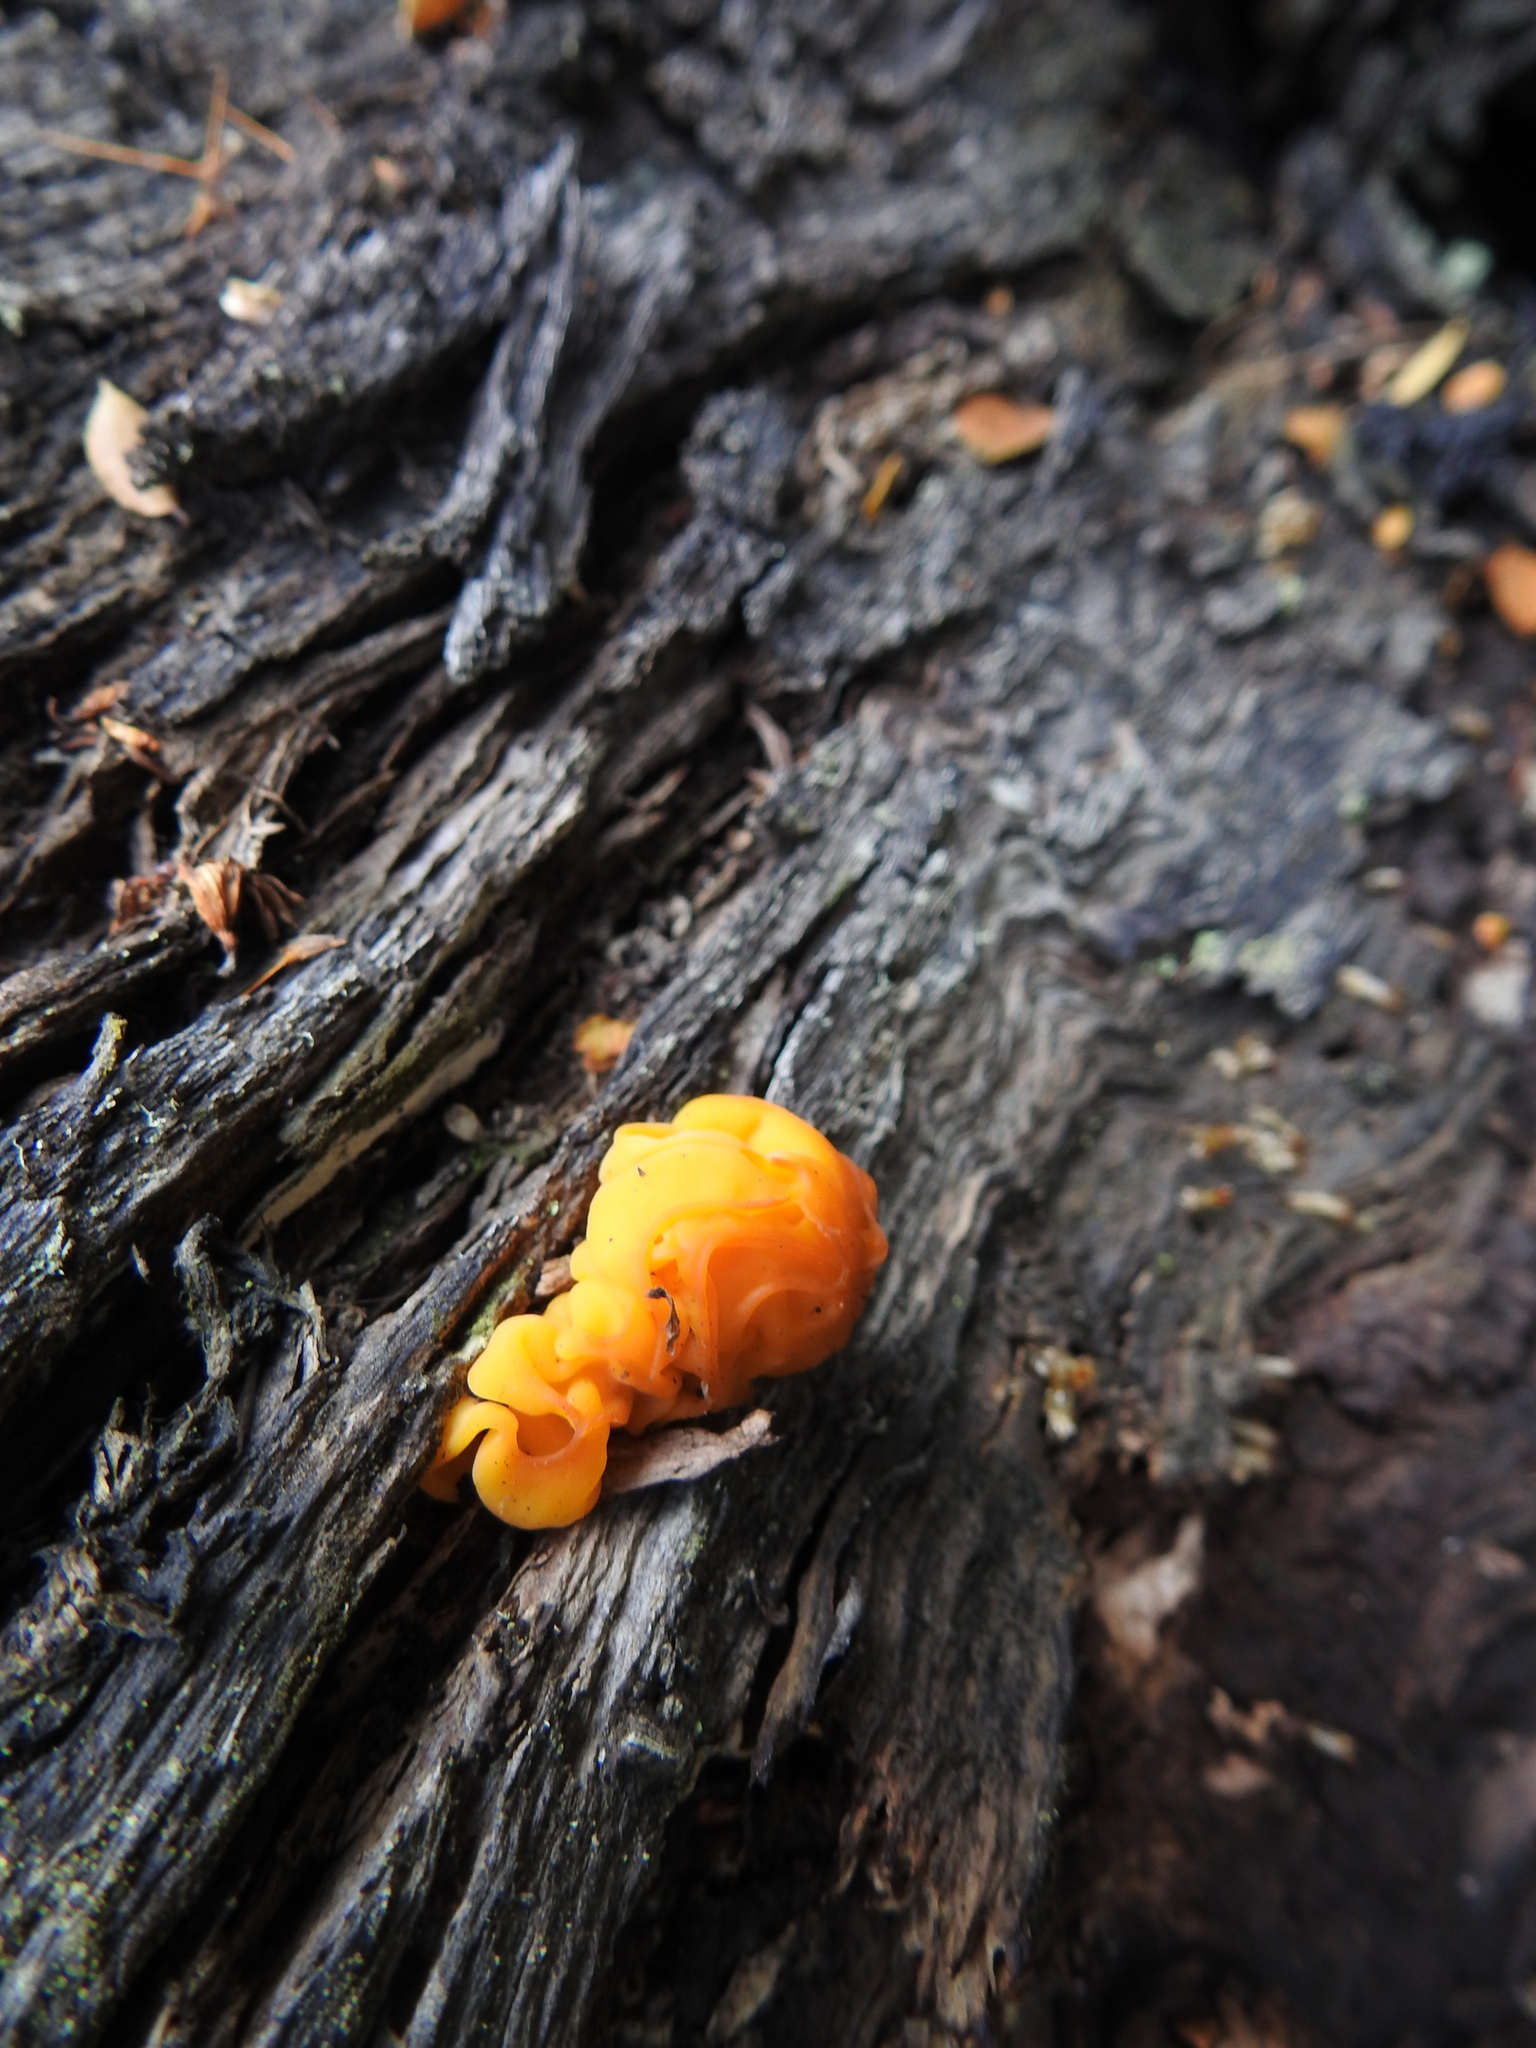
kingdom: Fungi
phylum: Basidiomycota
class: Tremellomycetes
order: Tremellales
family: Tremellaceae
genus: Tremella
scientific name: Tremella mesenterica
